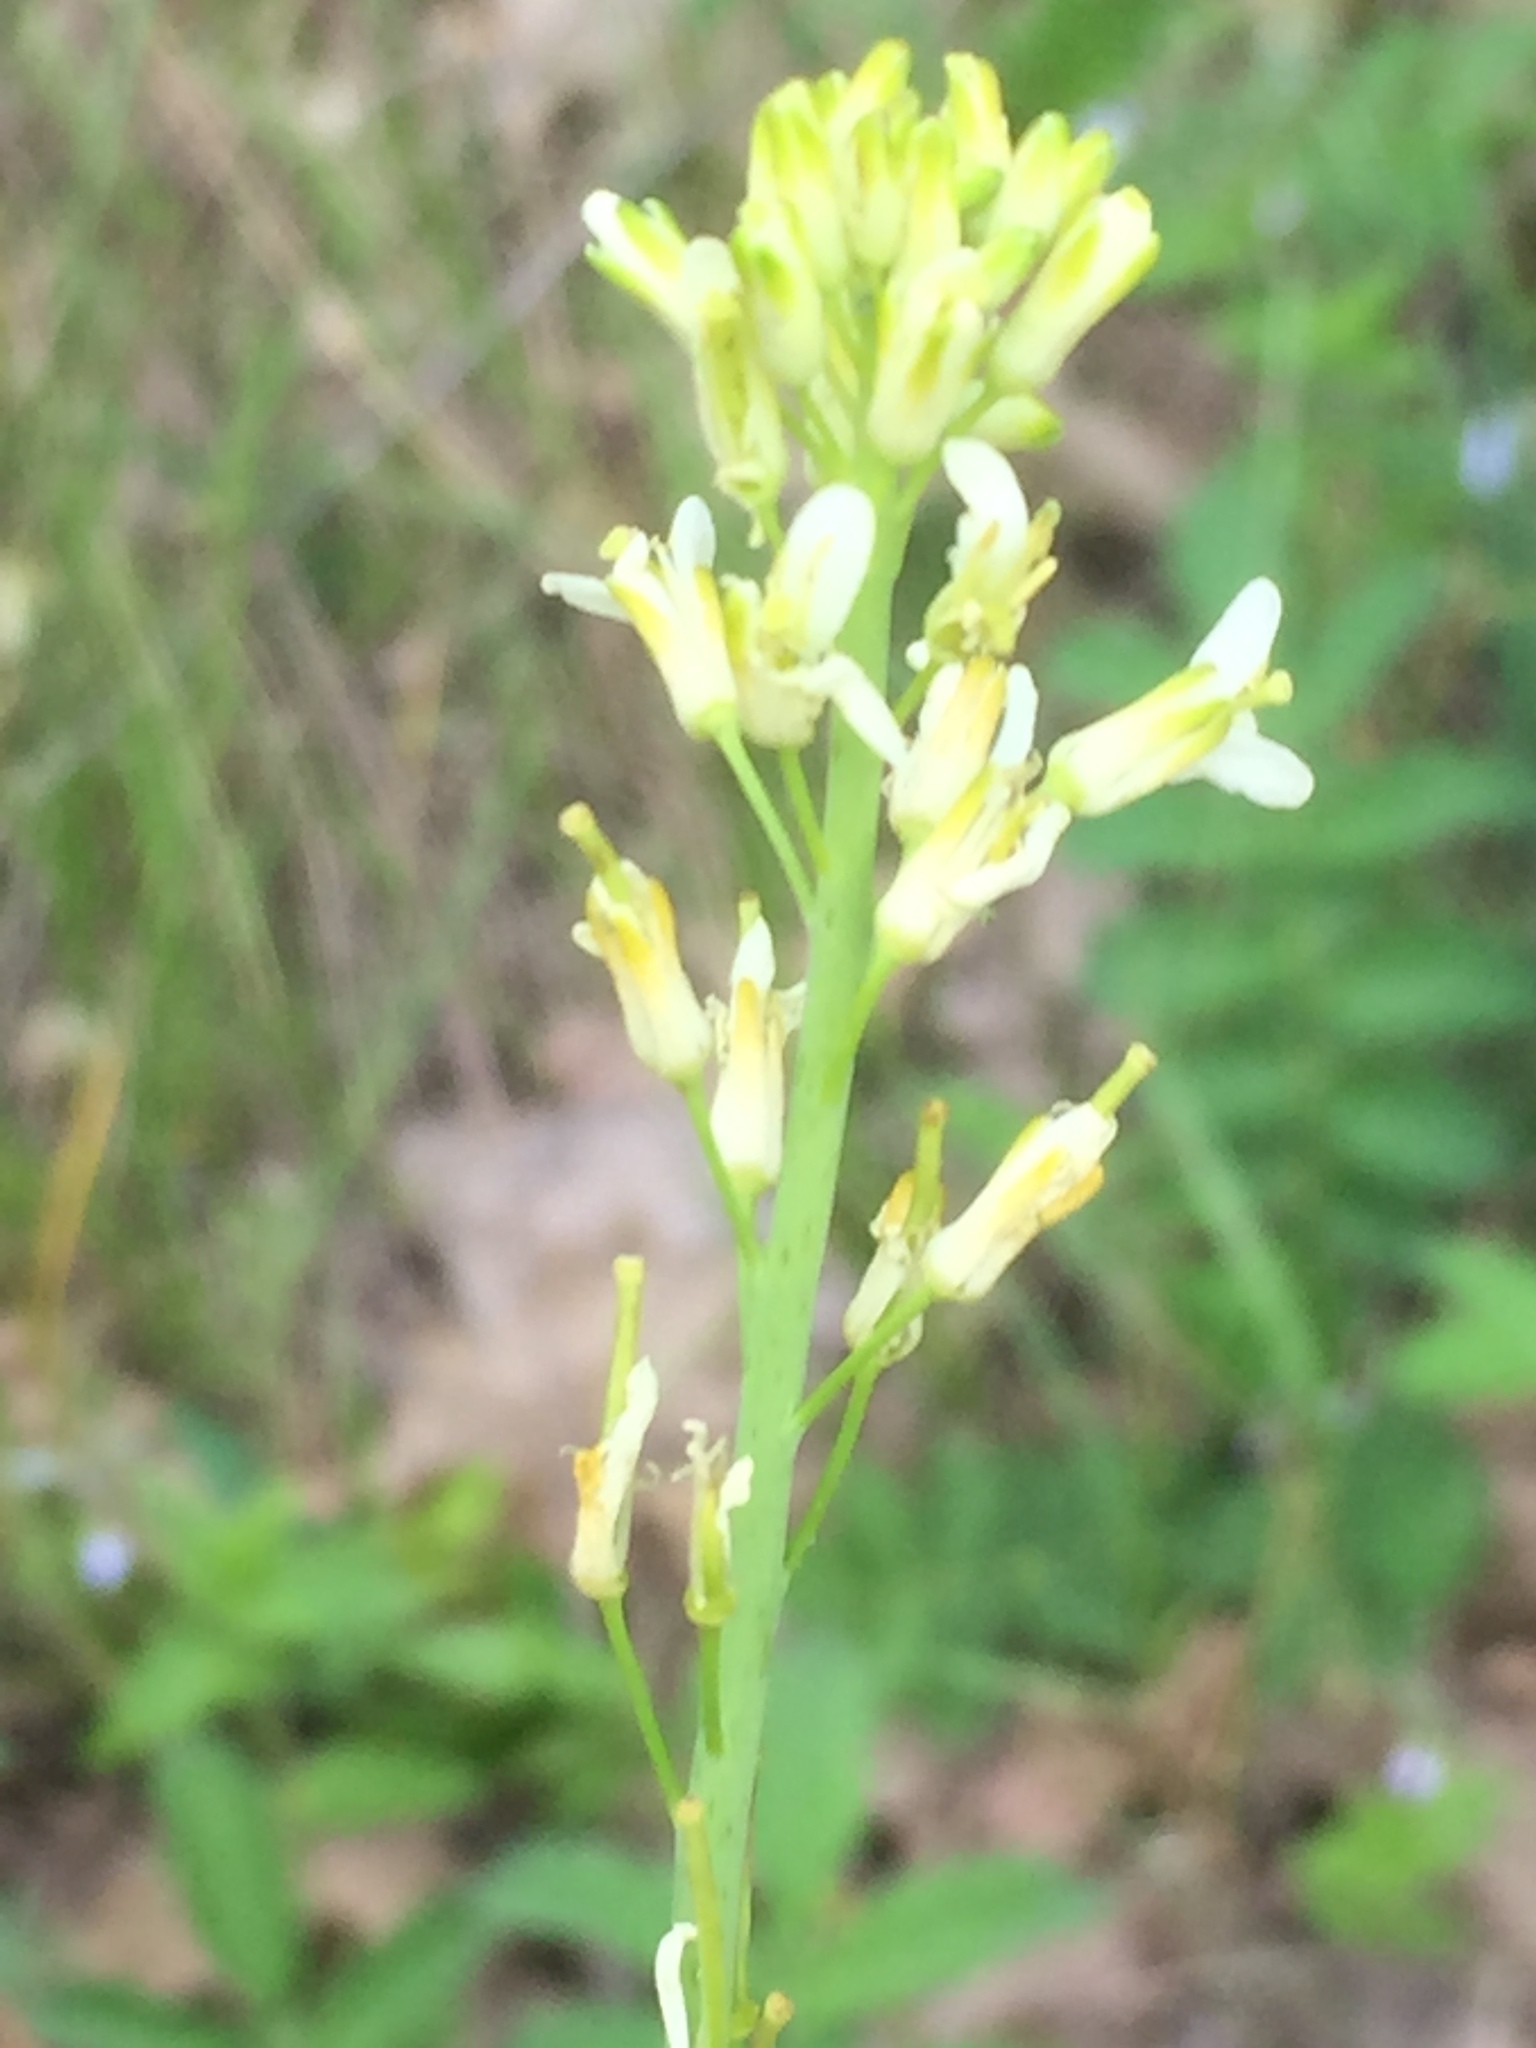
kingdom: Plantae
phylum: Tracheophyta
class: Magnoliopsida
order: Brassicales
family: Brassicaceae
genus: Turritis
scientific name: Turritis glabra
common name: Tower rockcress
